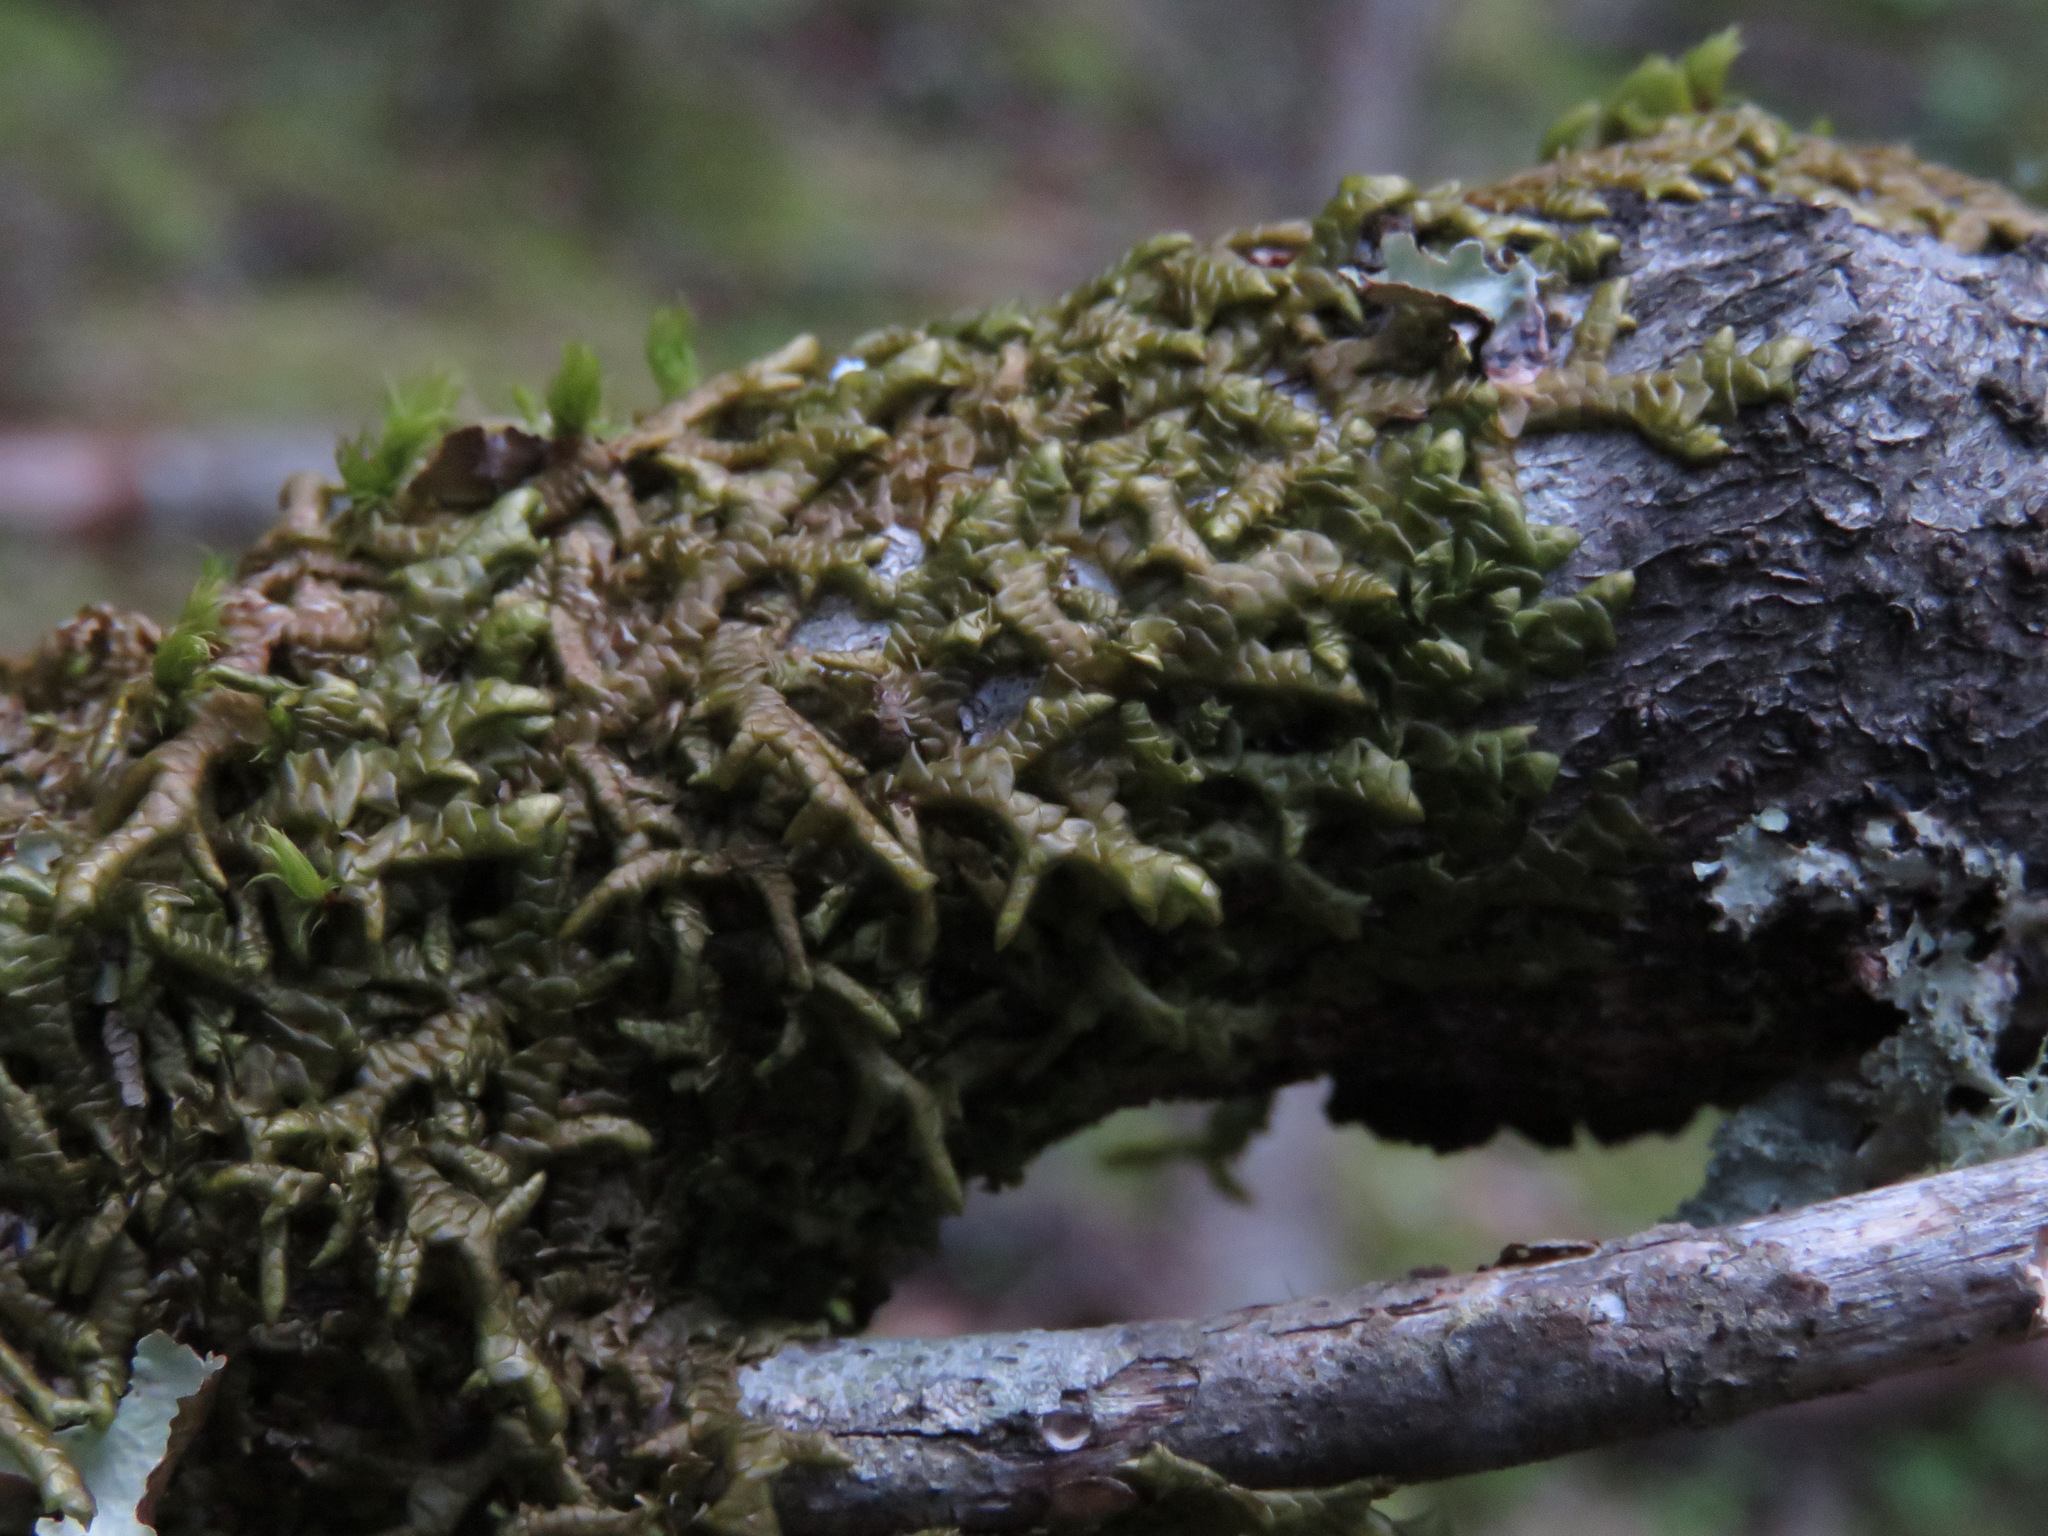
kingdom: Plantae
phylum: Marchantiophyta
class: Jungermanniopsida
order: Porellales
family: Porellaceae
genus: Porella
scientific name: Porella navicularis
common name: Tree ruffle liverwort
